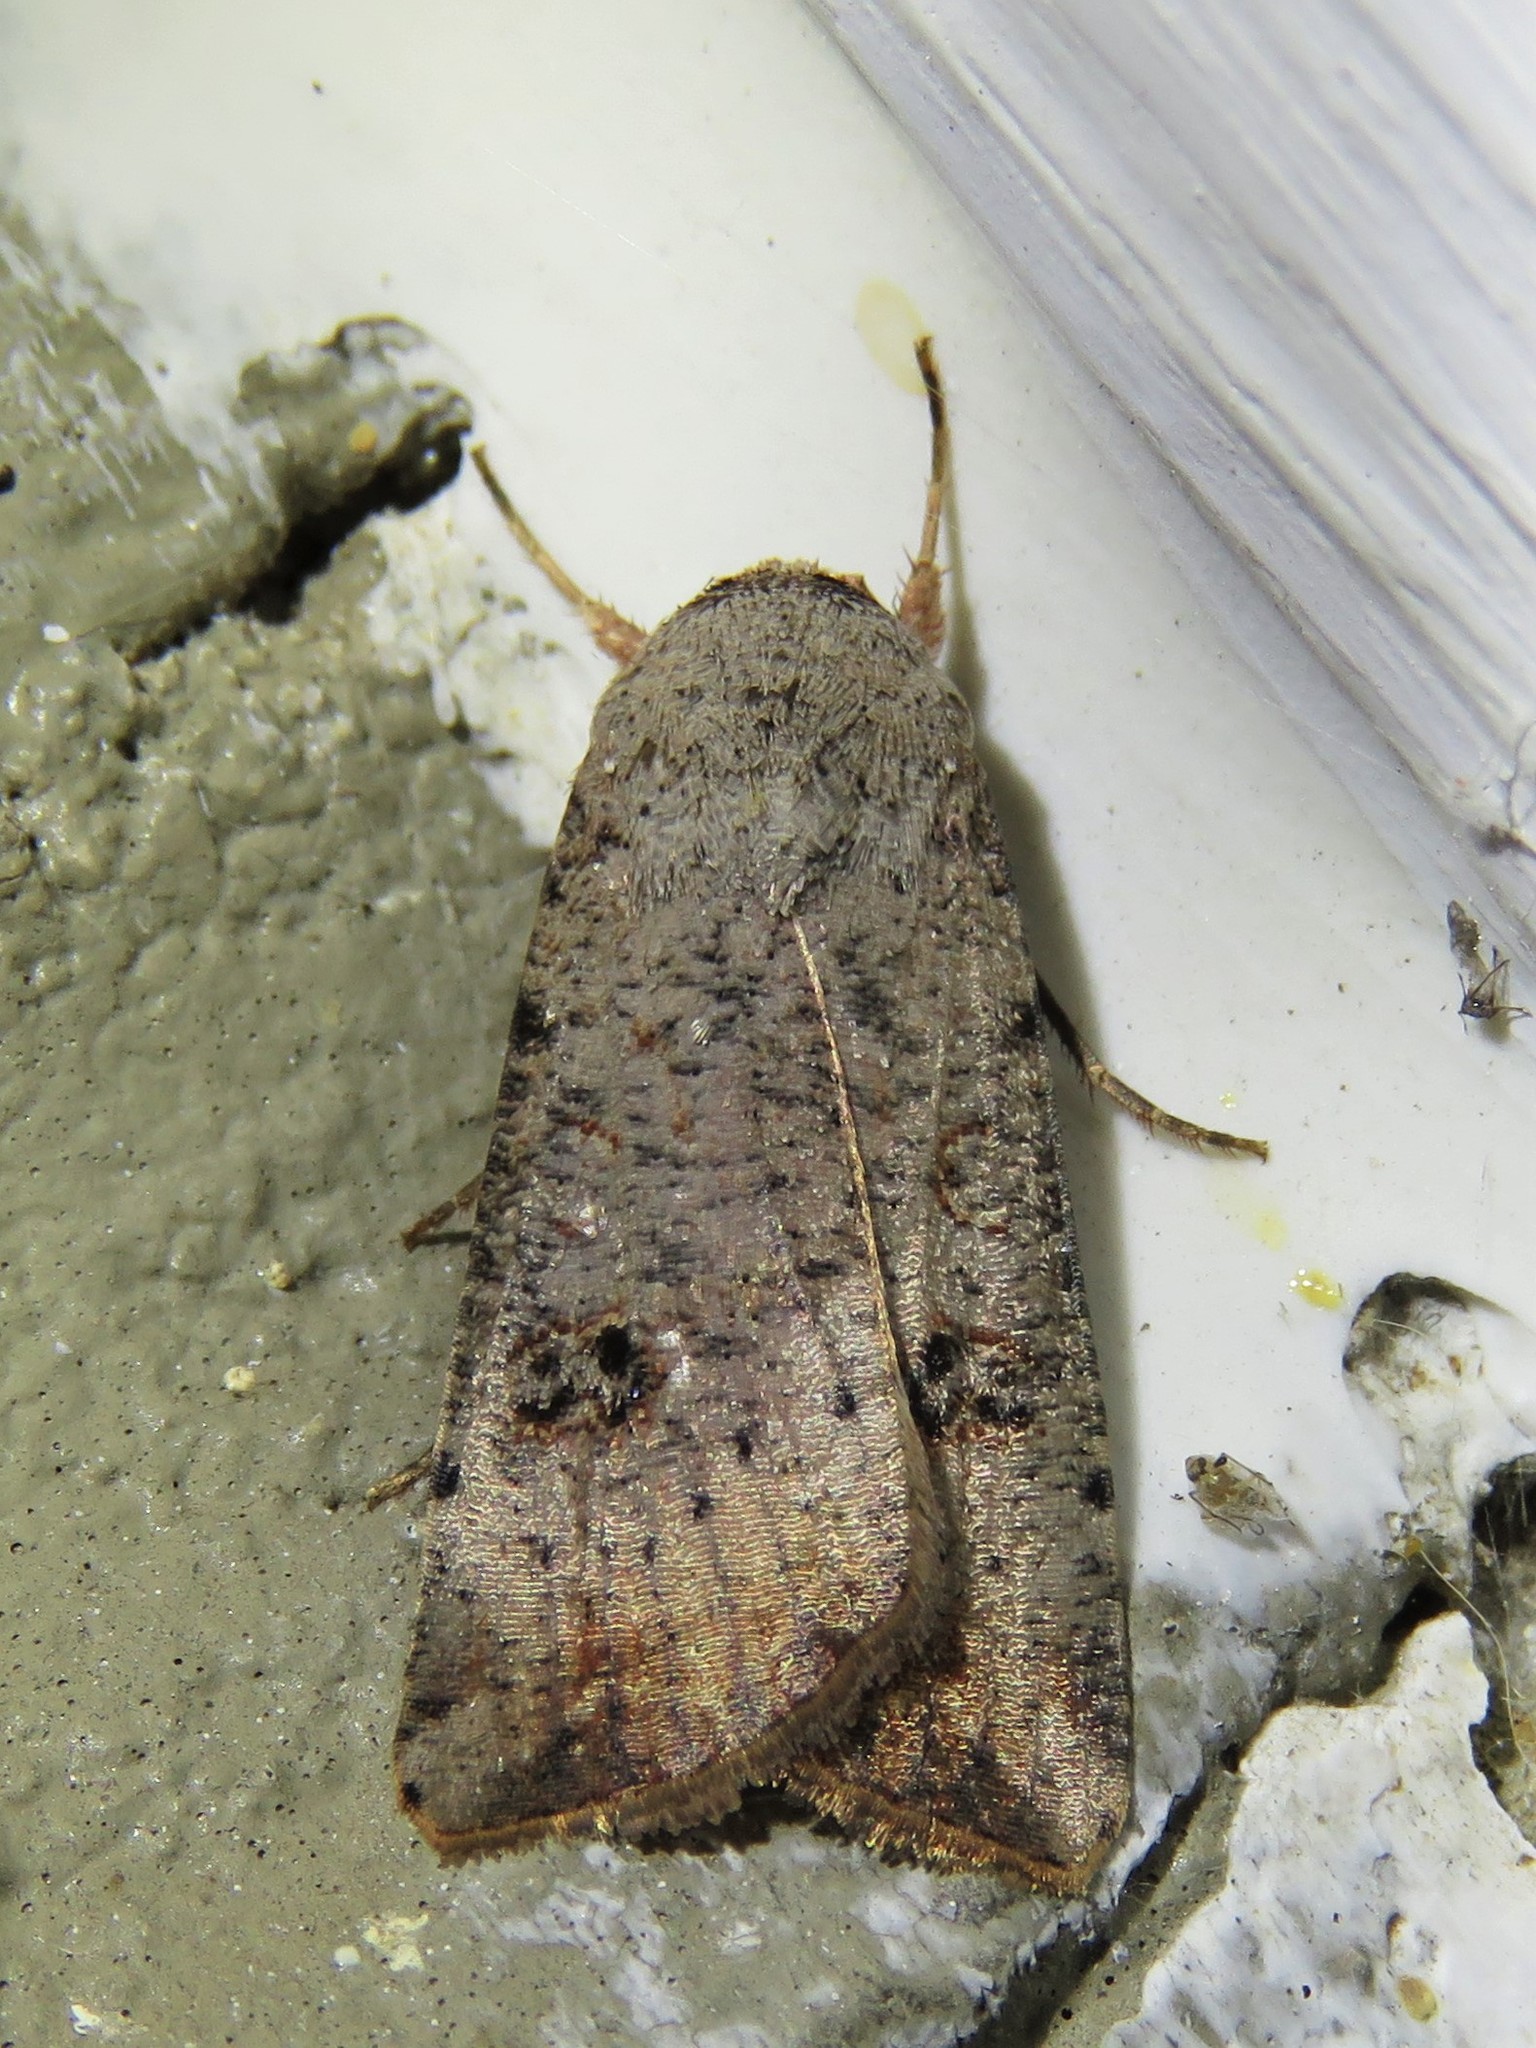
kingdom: Animalia
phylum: Arthropoda
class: Insecta
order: Lepidoptera
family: Noctuidae
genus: Anicla
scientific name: Anicla infecta
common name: Green cutworm
